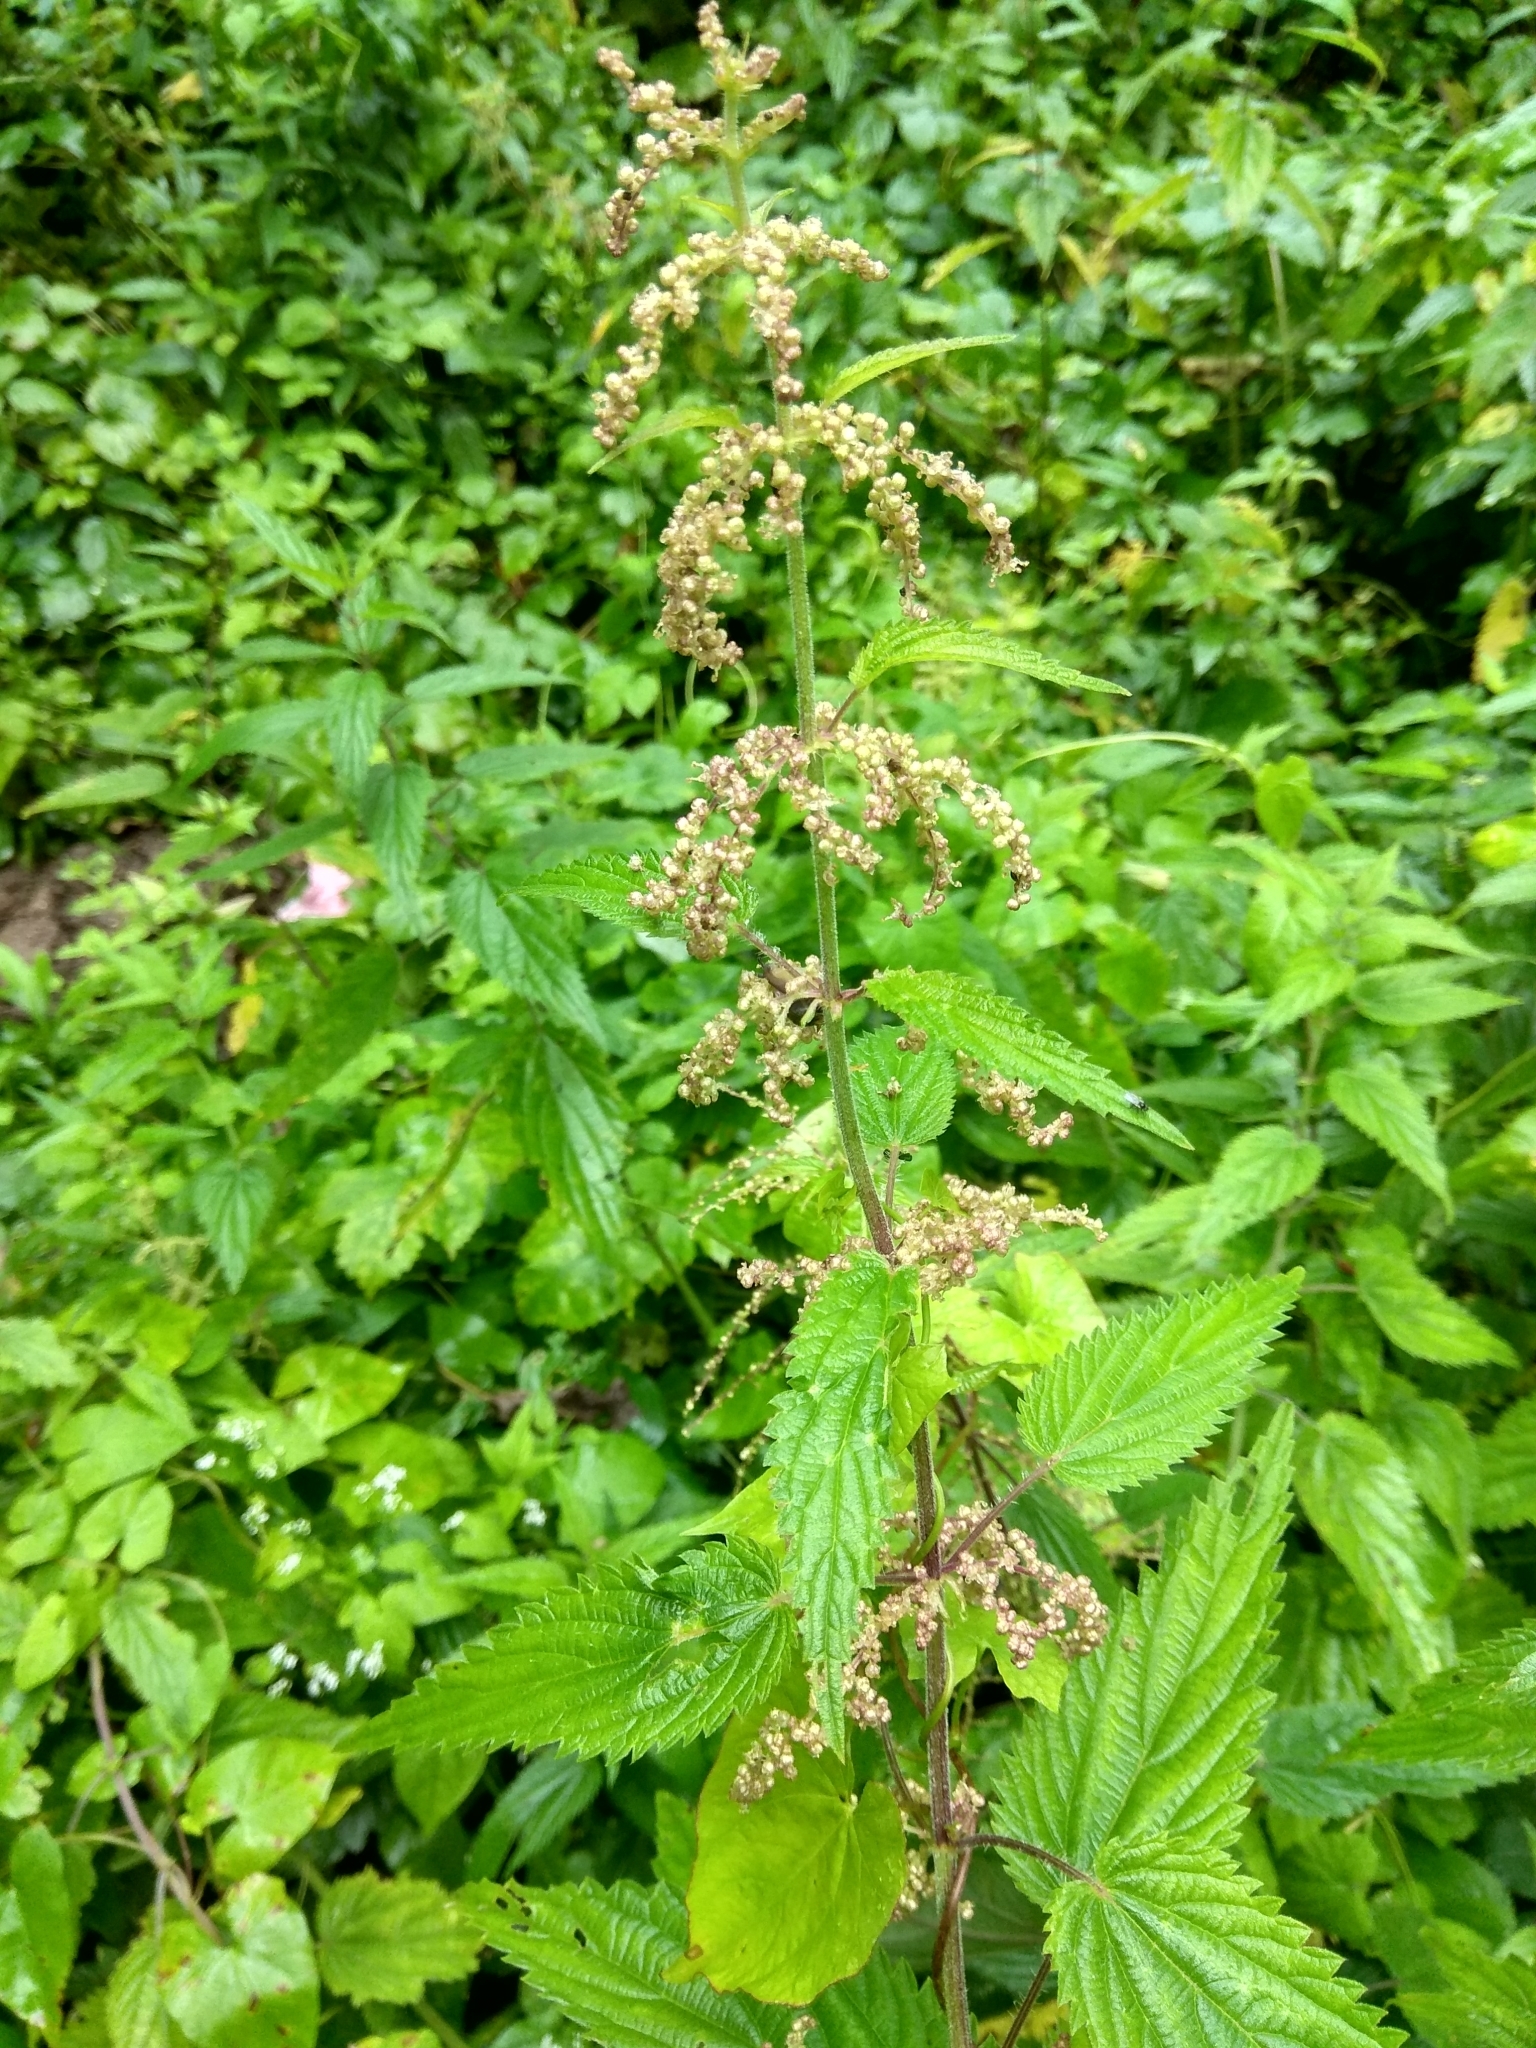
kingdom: Plantae
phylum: Tracheophyta
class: Magnoliopsida
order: Rosales
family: Urticaceae
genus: Urtica
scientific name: Urtica dioica
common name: Common nettle
